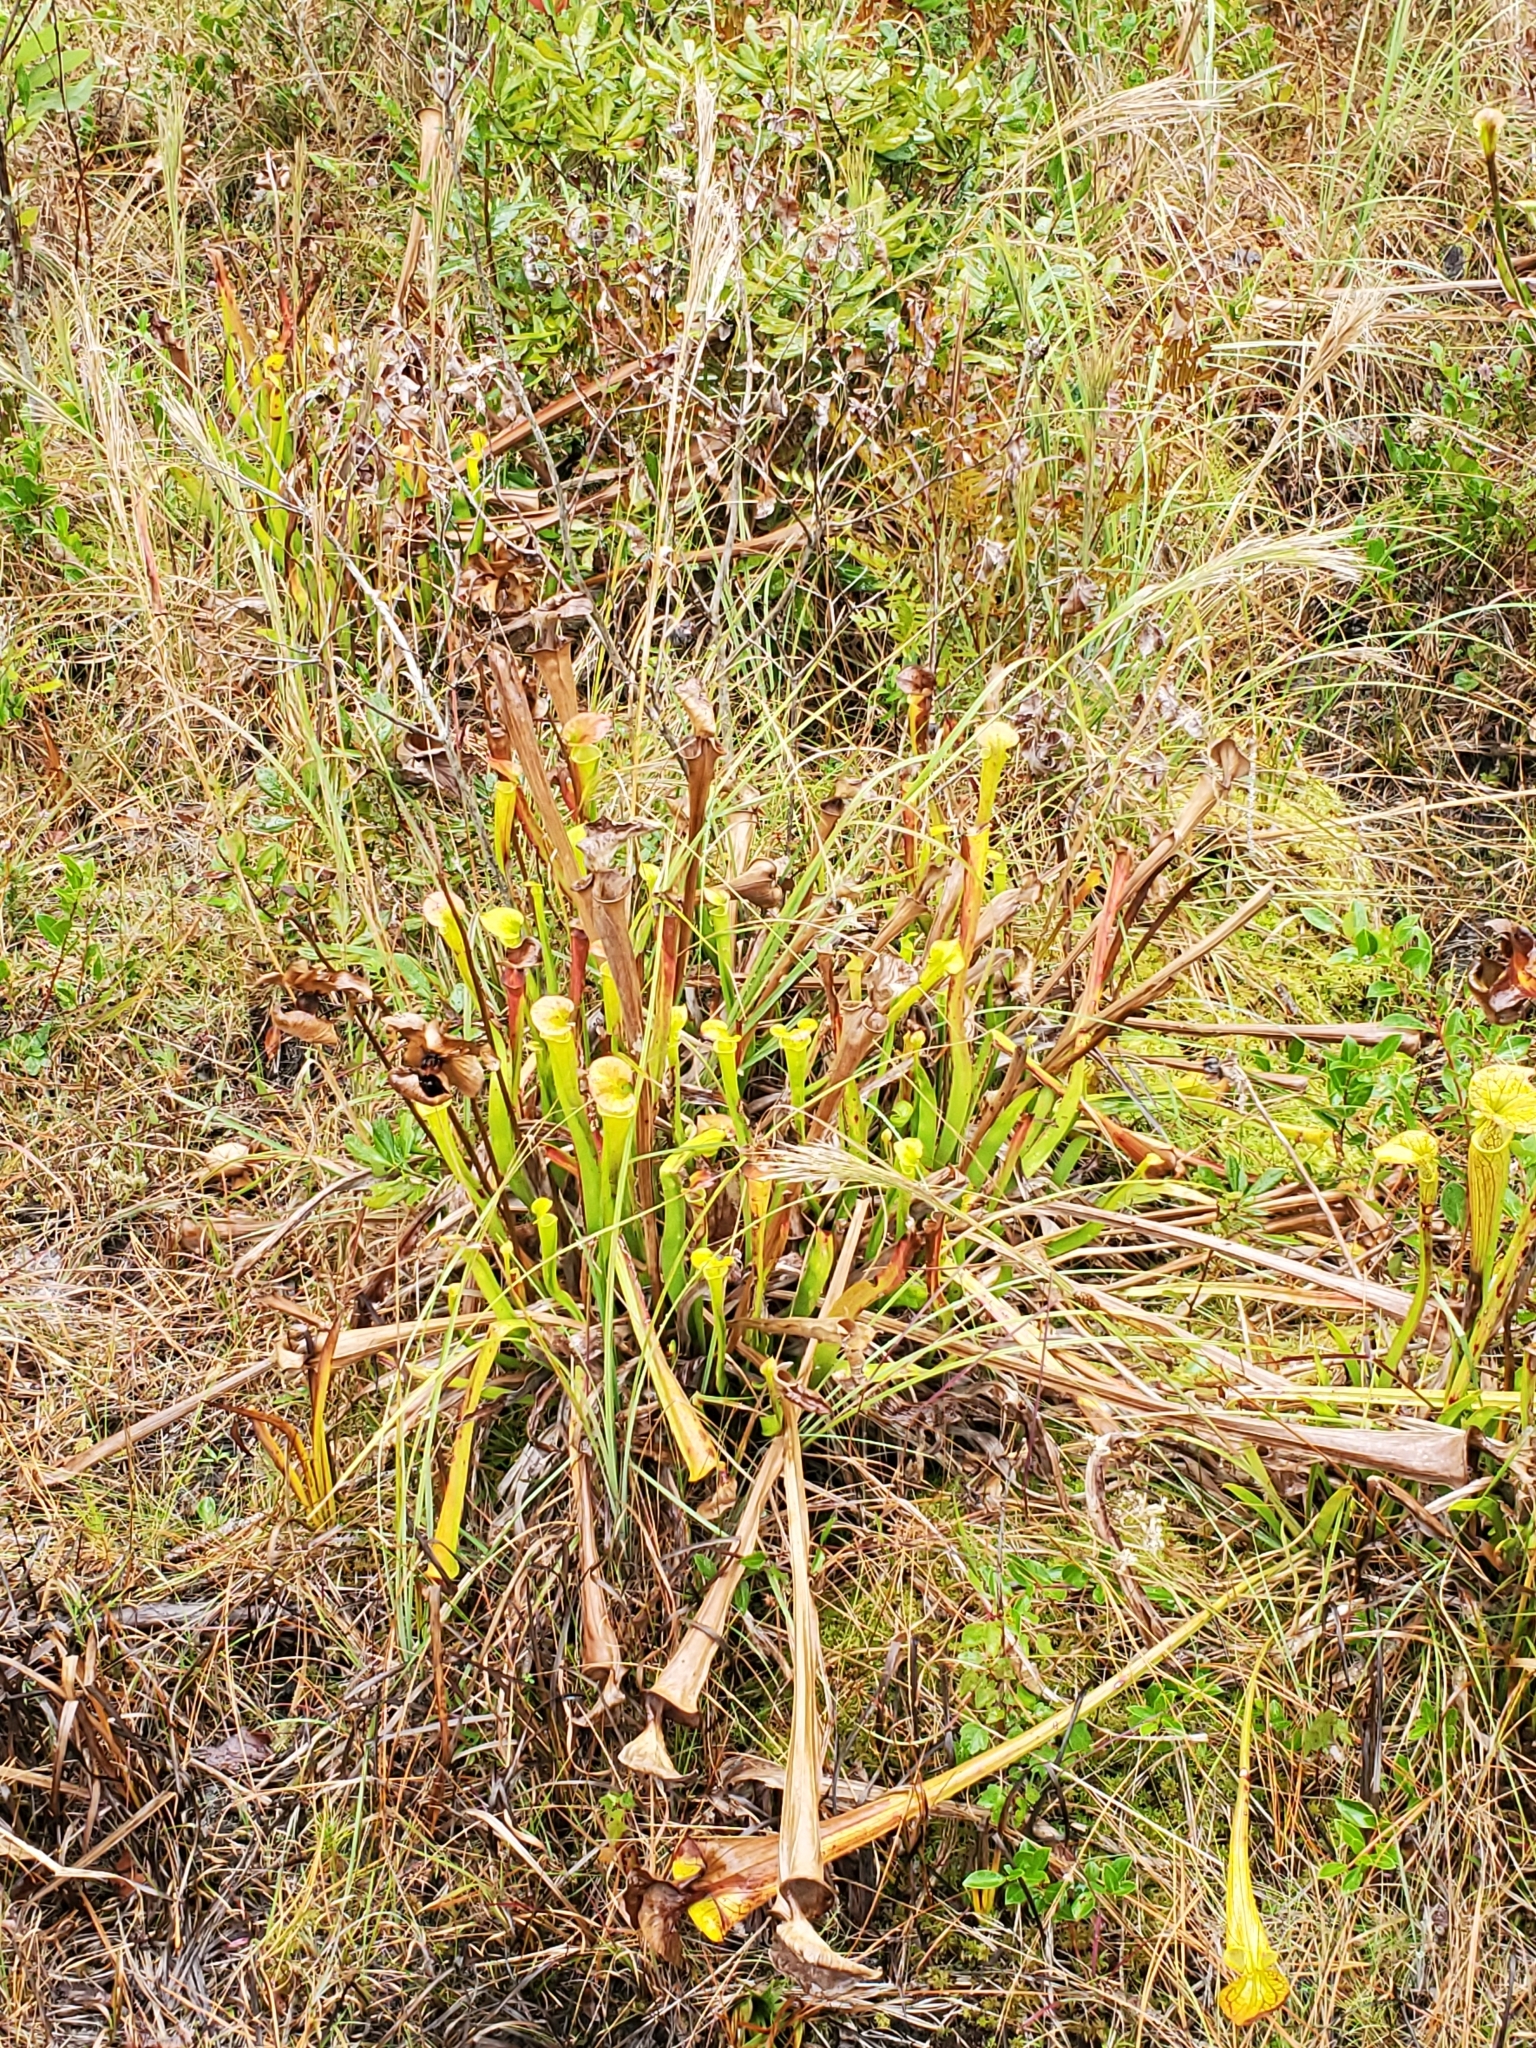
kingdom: Plantae
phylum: Tracheophyta
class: Magnoliopsida
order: Ericales
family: Sarraceniaceae
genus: Sarracenia
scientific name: Sarracenia flava
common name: Trumpets
